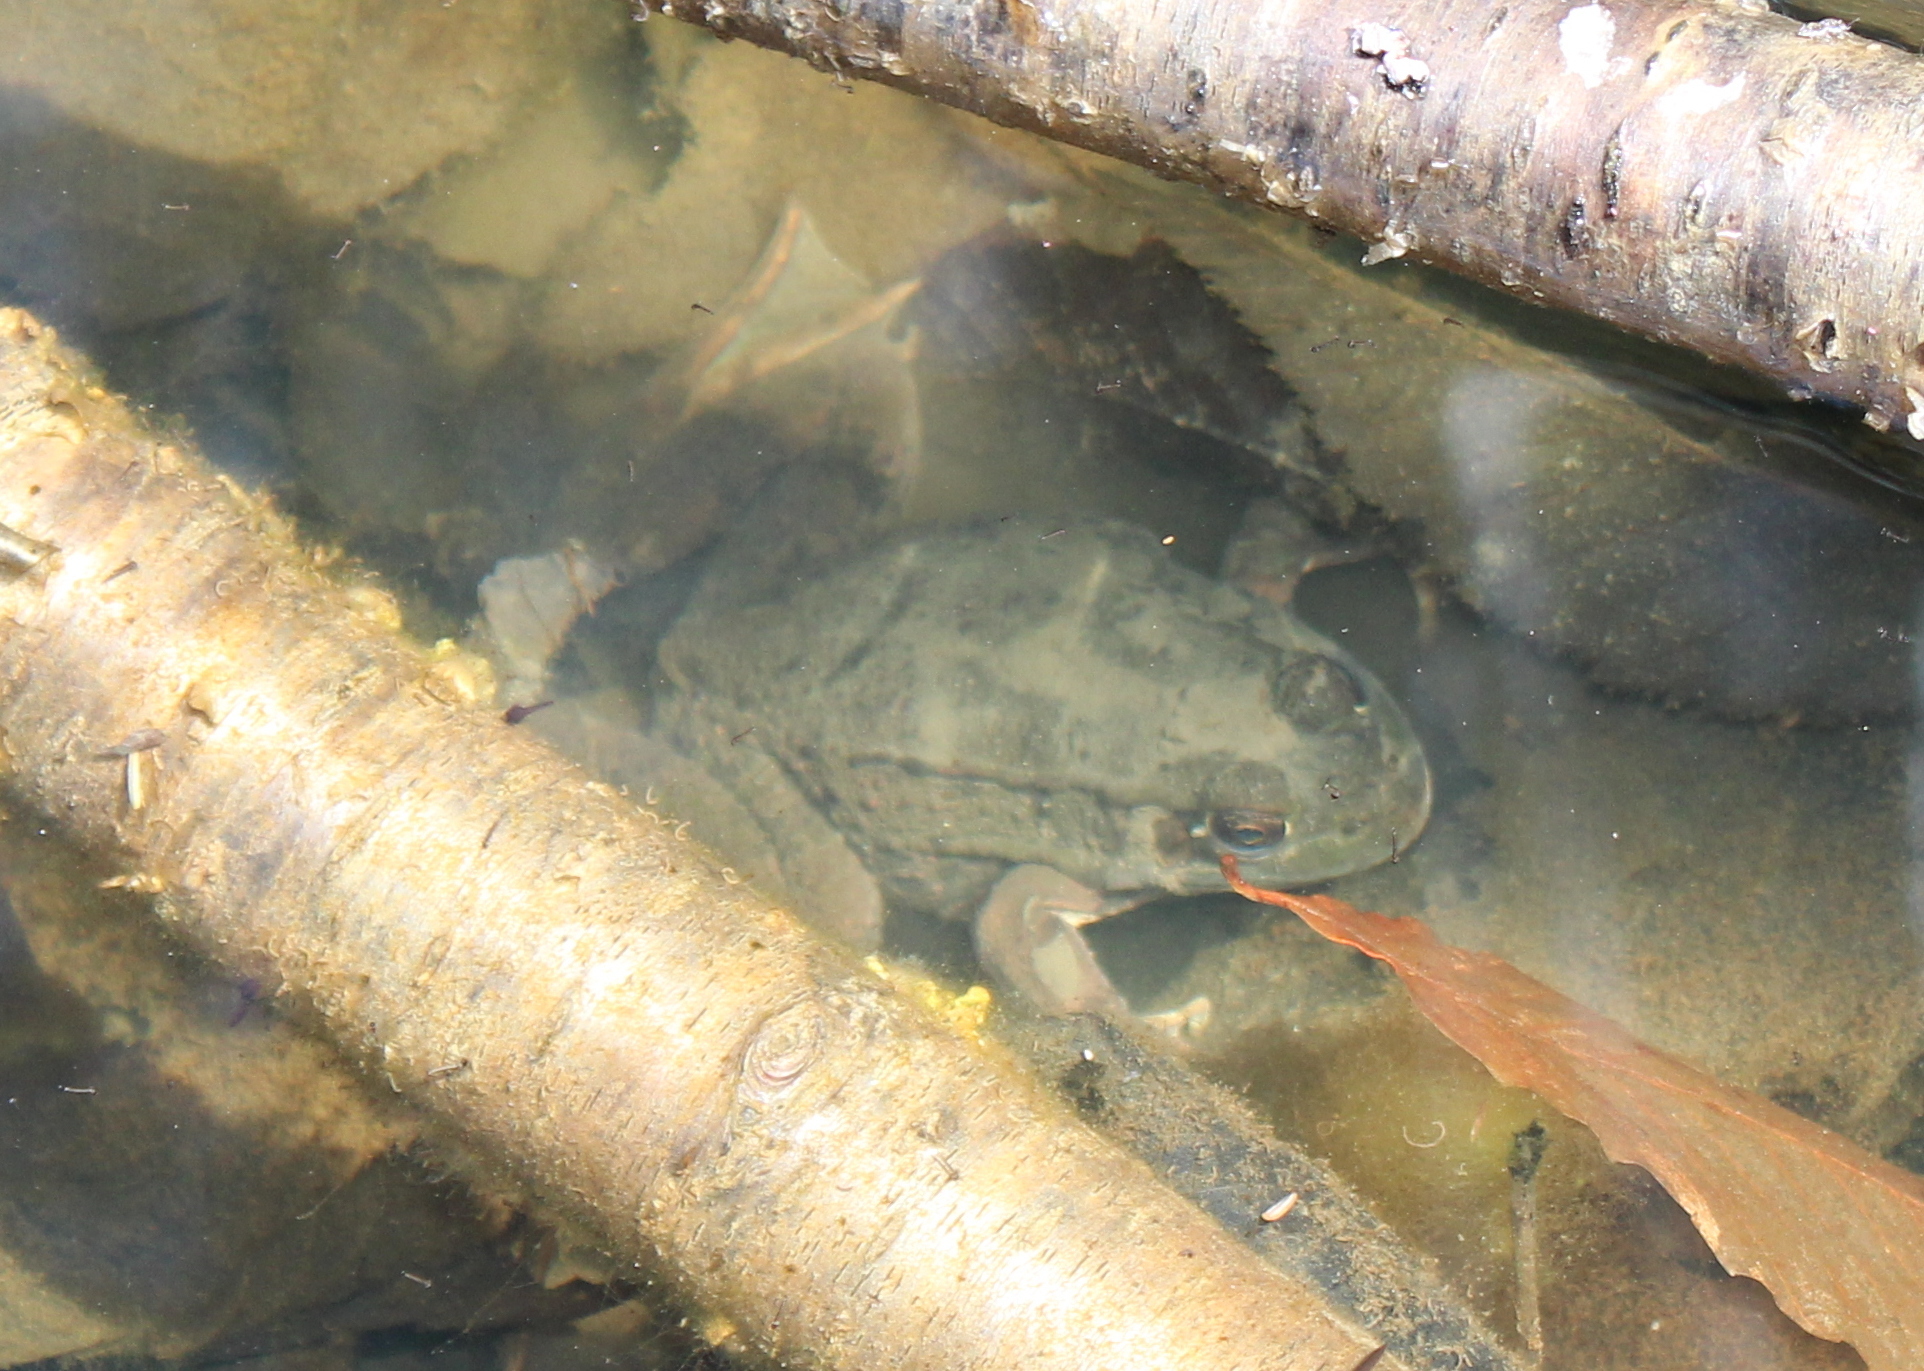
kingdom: Animalia
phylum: Chordata
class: Amphibia
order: Anura
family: Ranidae
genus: Lithobates
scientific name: Lithobates clamitans
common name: Green frog
